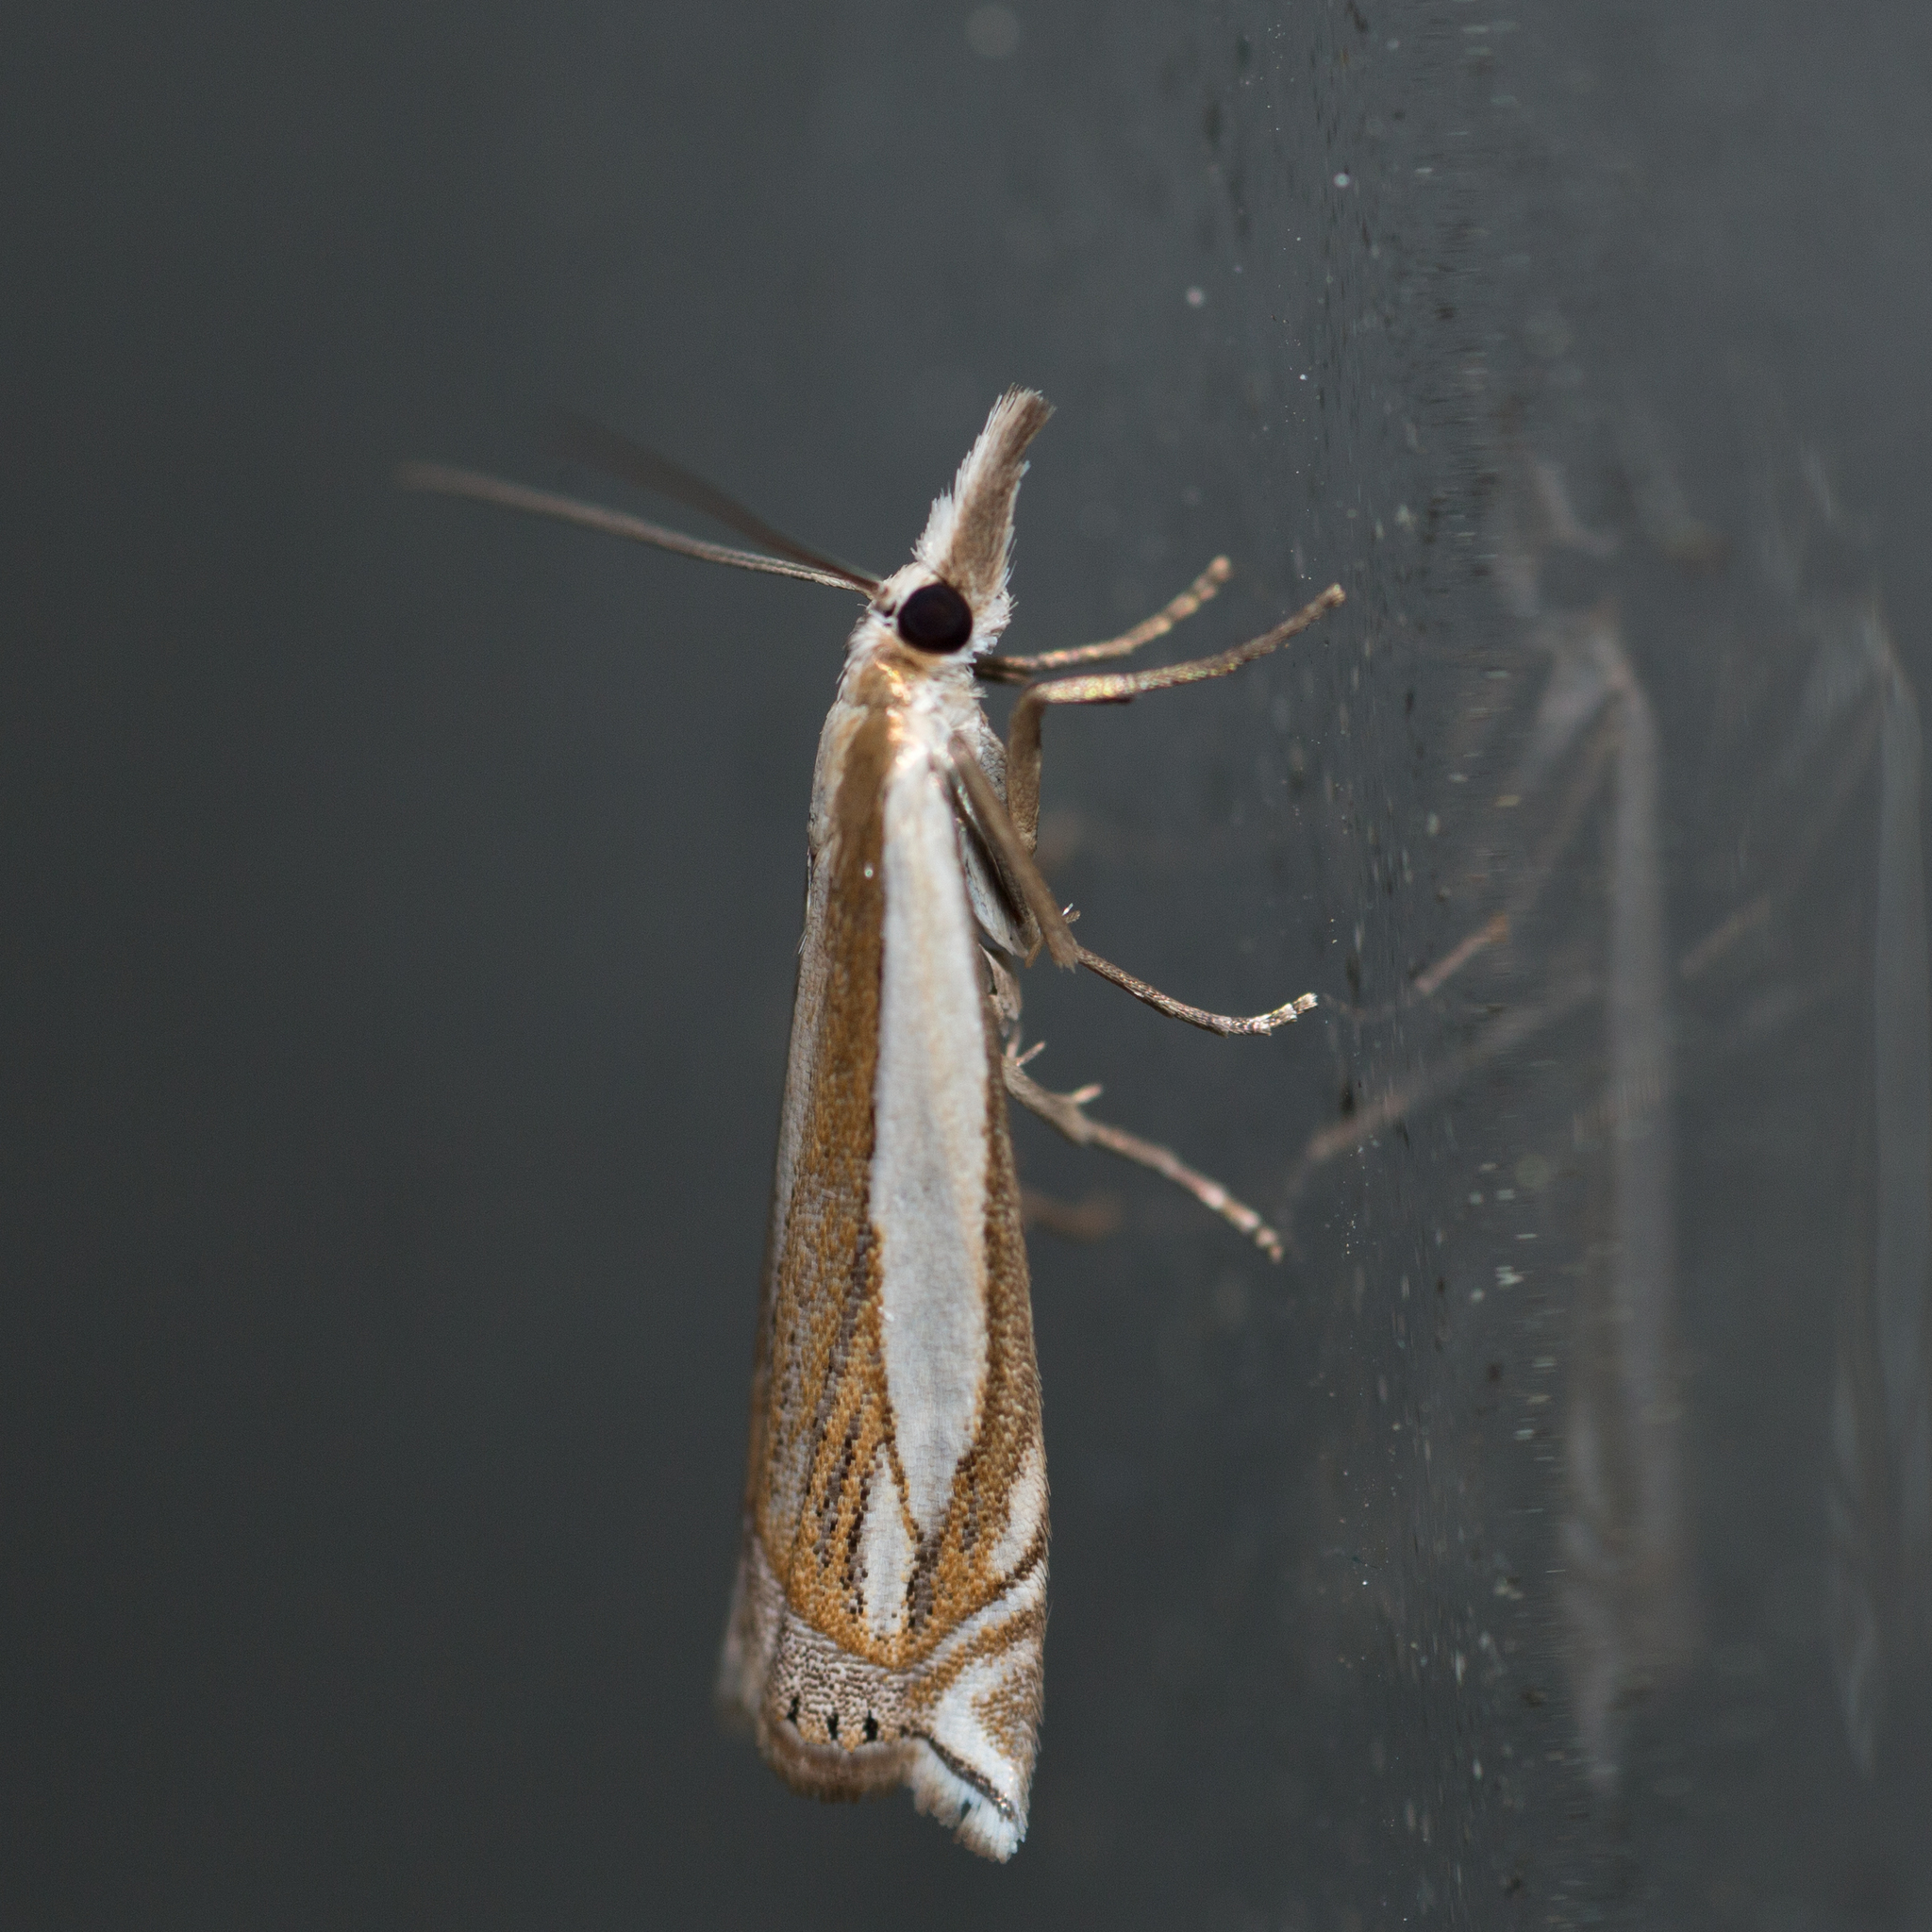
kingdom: Animalia
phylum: Arthropoda
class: Insecta
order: Lepidoptera
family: Crambidae
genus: Crambus
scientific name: Crambus pascuella
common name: Inlaid grass-veneer
